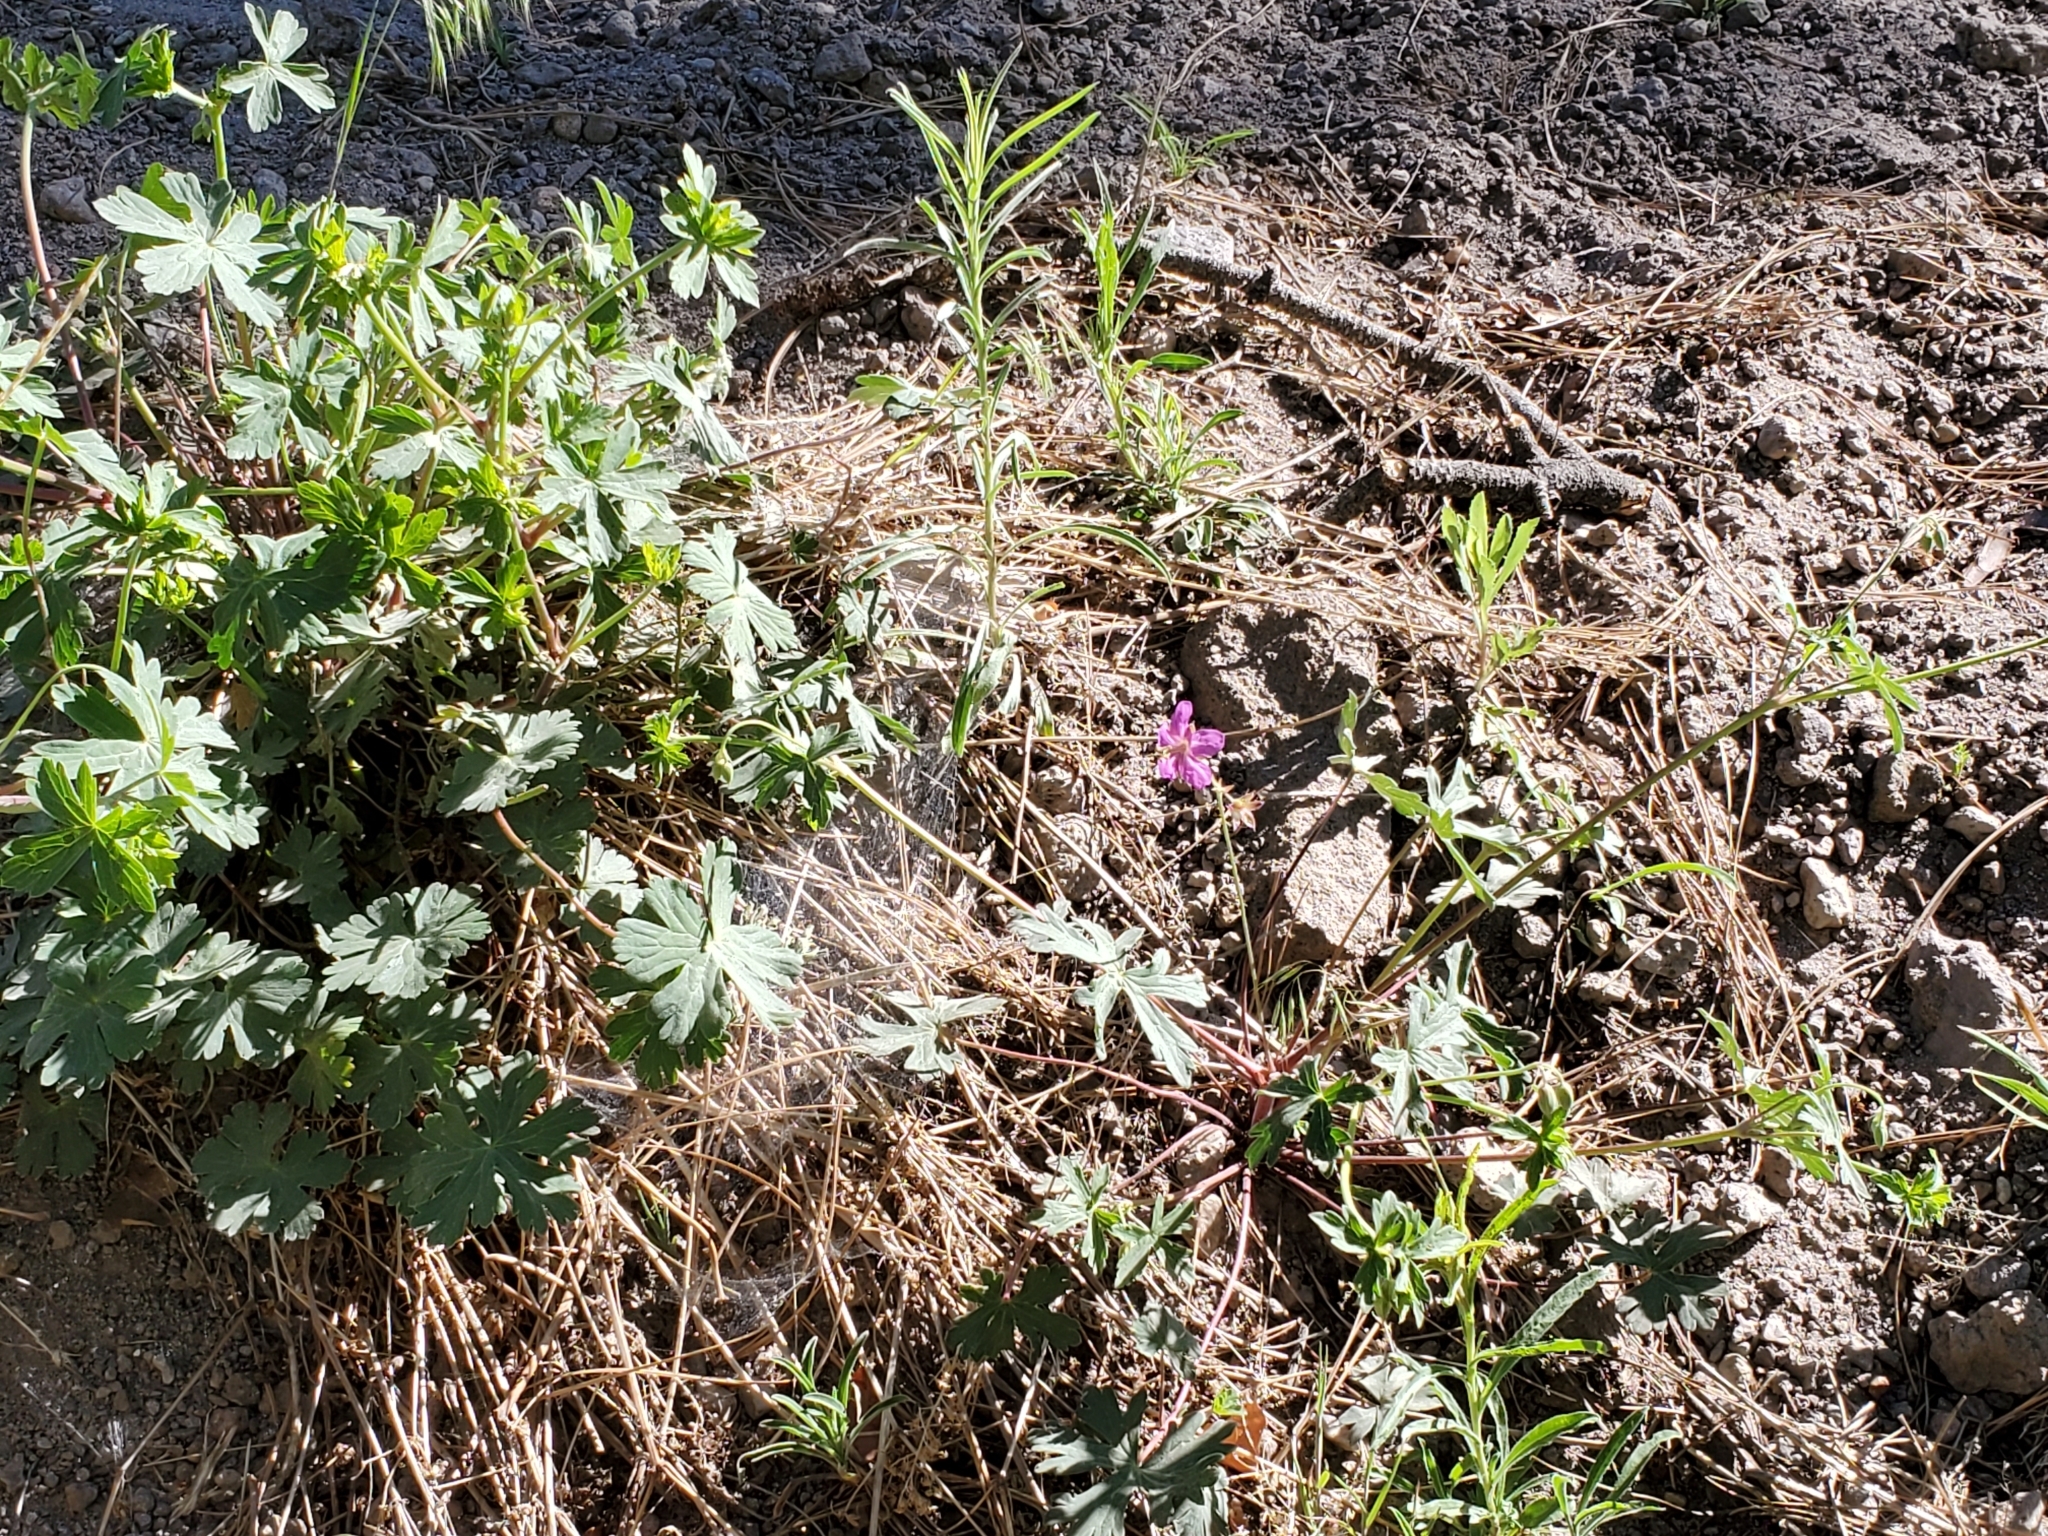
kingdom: Plantae
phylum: Tracheophyta
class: Magnoliopsida
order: Geraniales
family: Geraniaceae
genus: Geranium
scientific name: Geranium caespitosum
